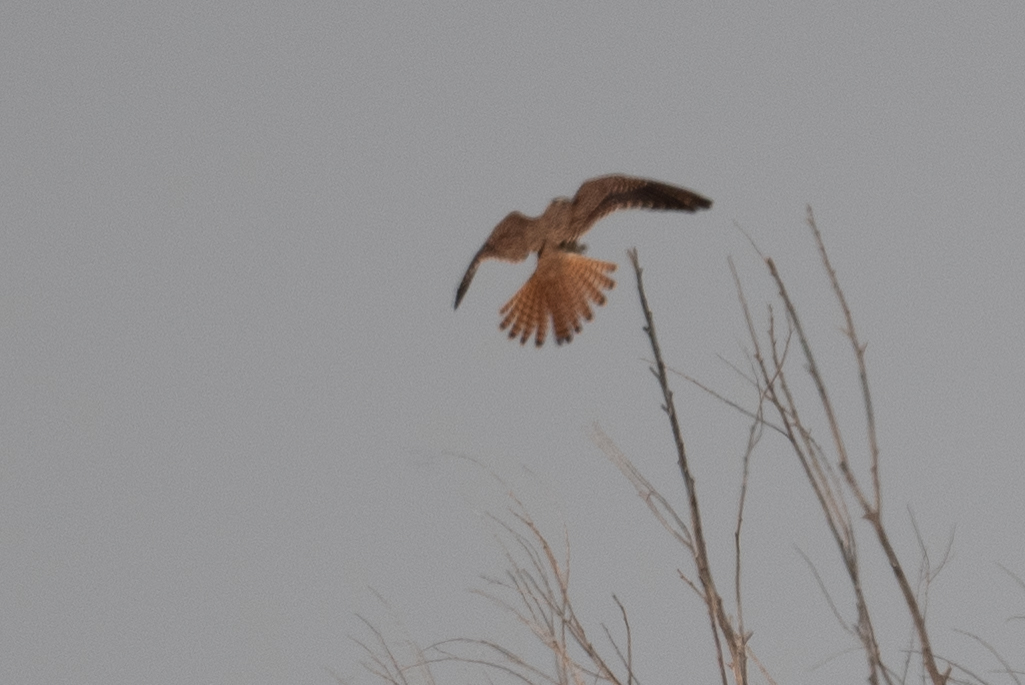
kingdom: Animalia
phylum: Chordata
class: Aves
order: Falconiformes
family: Falconidae
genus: Falco
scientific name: Falco sparverius
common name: American kestrel
